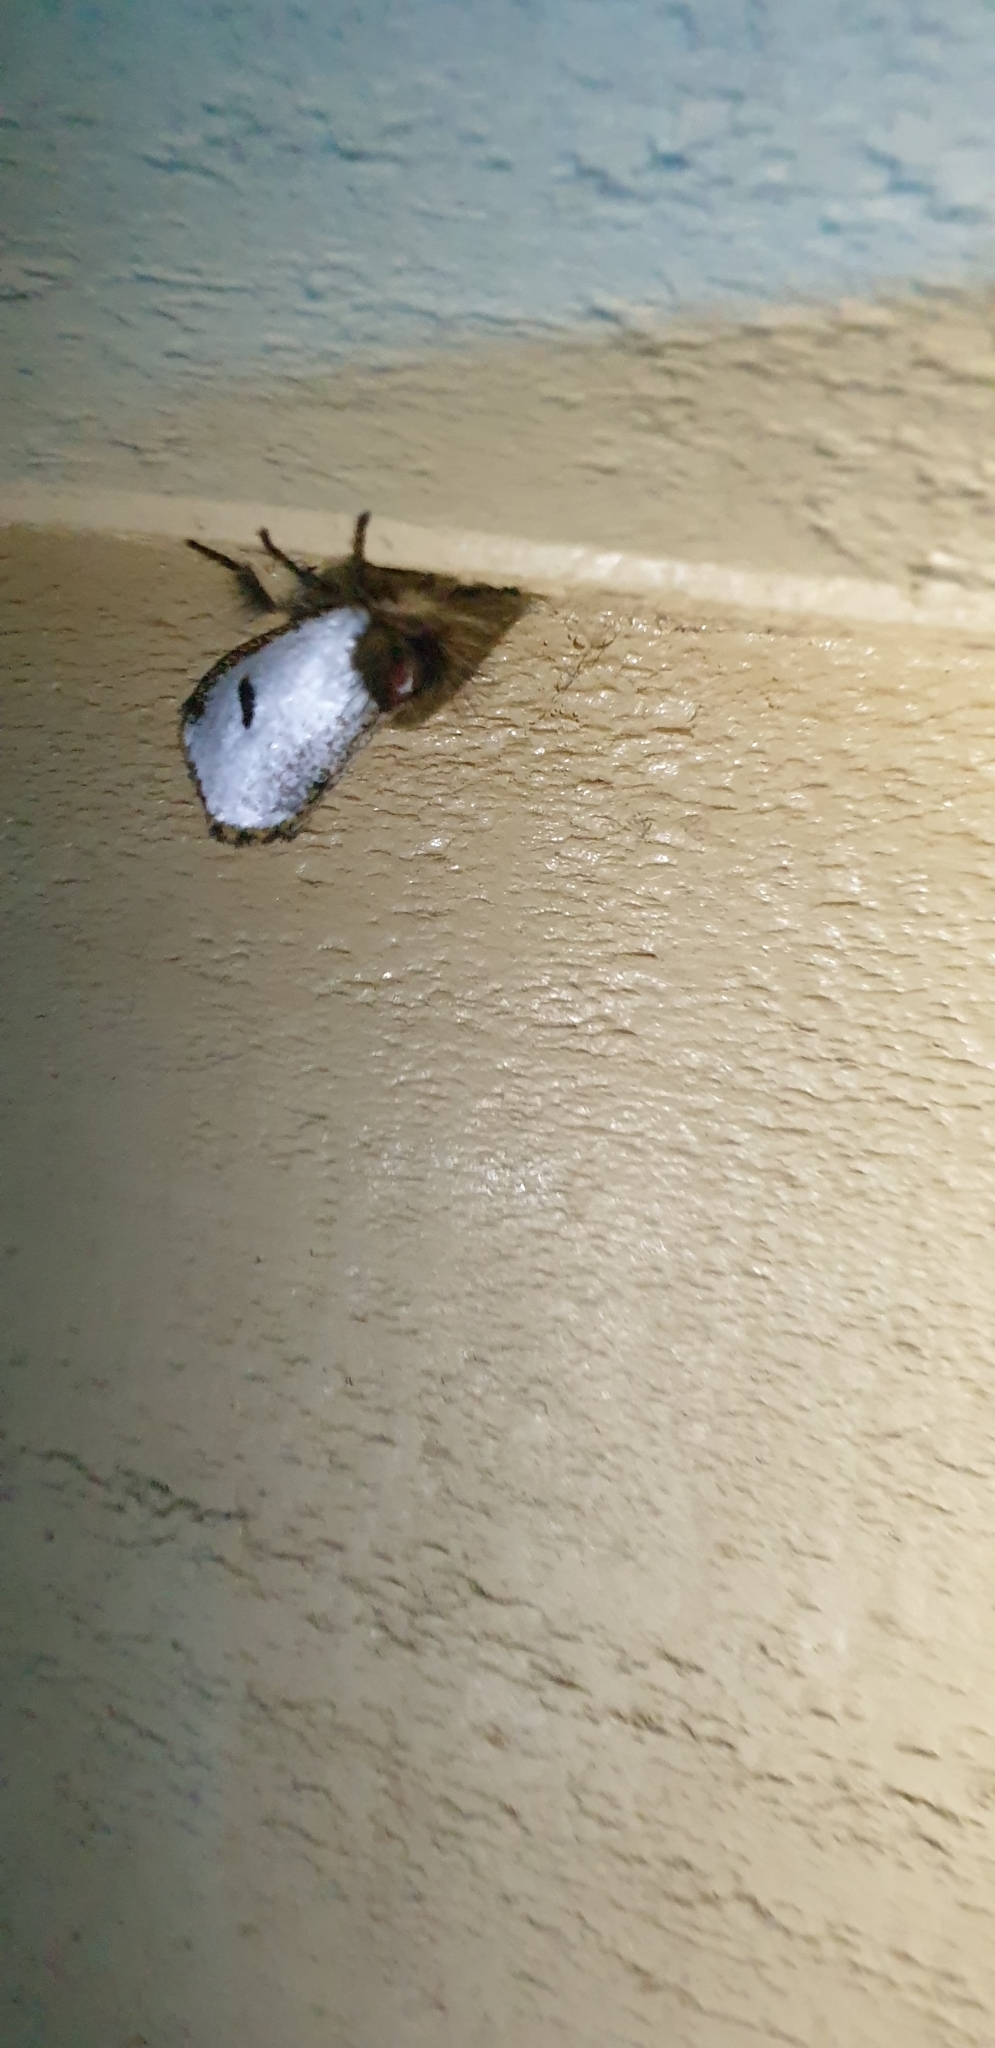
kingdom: Animalia
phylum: Arthropoda
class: Insecta
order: Lepidoptera
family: Notodontidae
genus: Epicoma
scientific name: Epicoma melanospila
